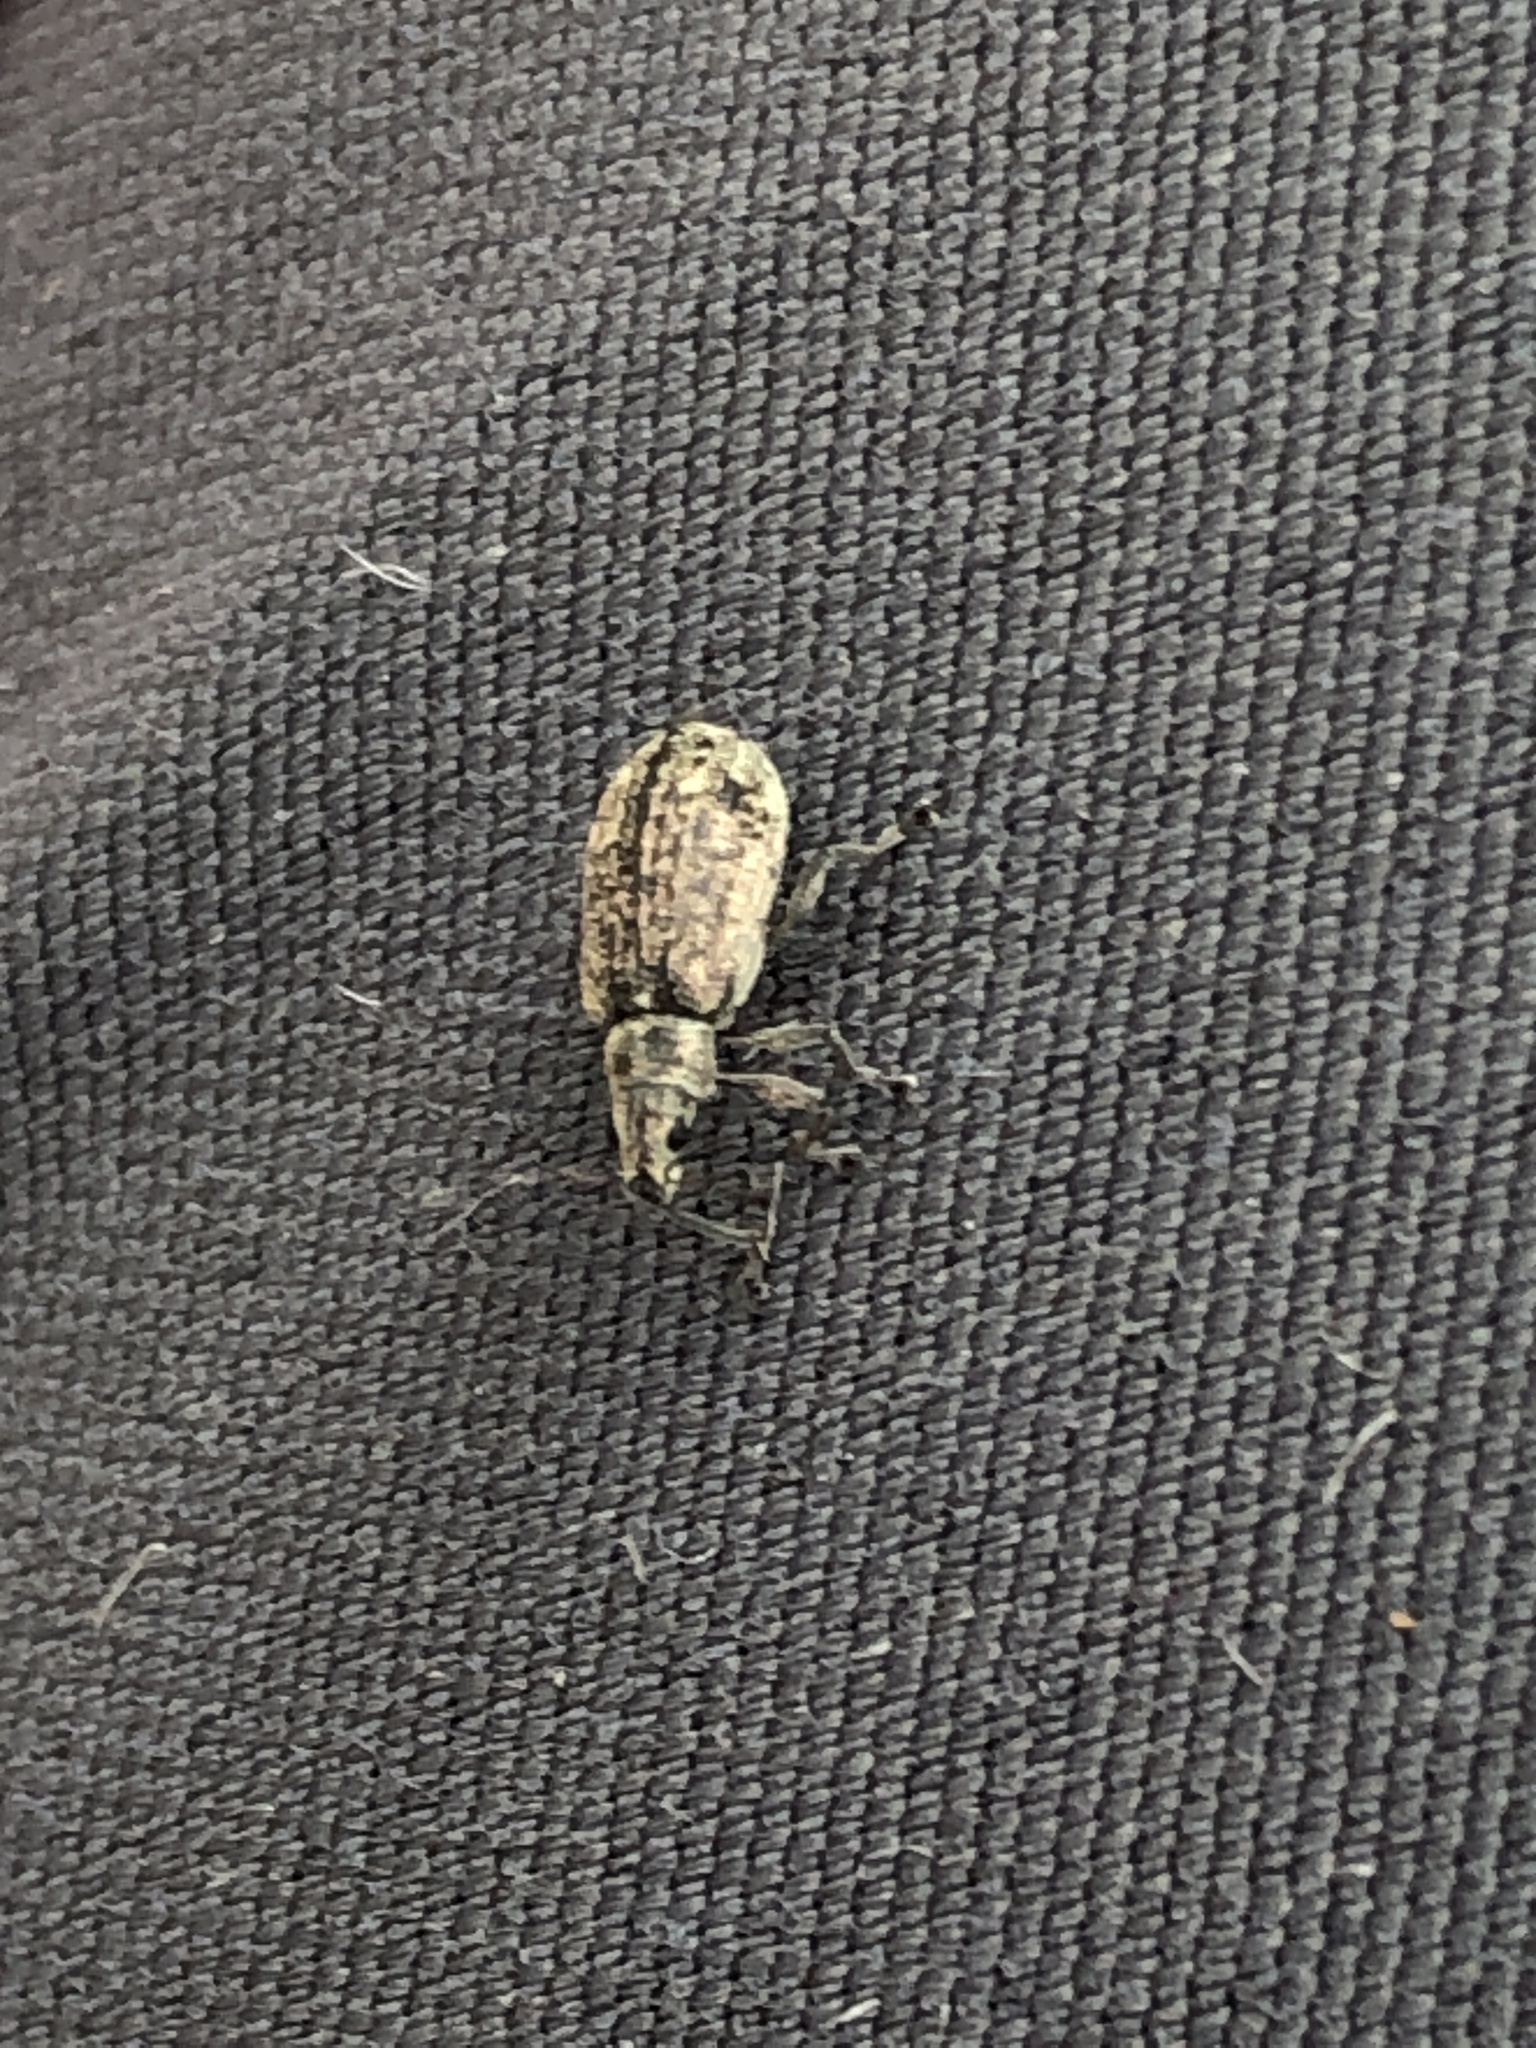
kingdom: Animalia
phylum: Arthropoda
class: Insecta
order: Coleoptera
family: Curculionidae
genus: Polydrusus
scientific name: Polydrusus cervinus
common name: Weevil
